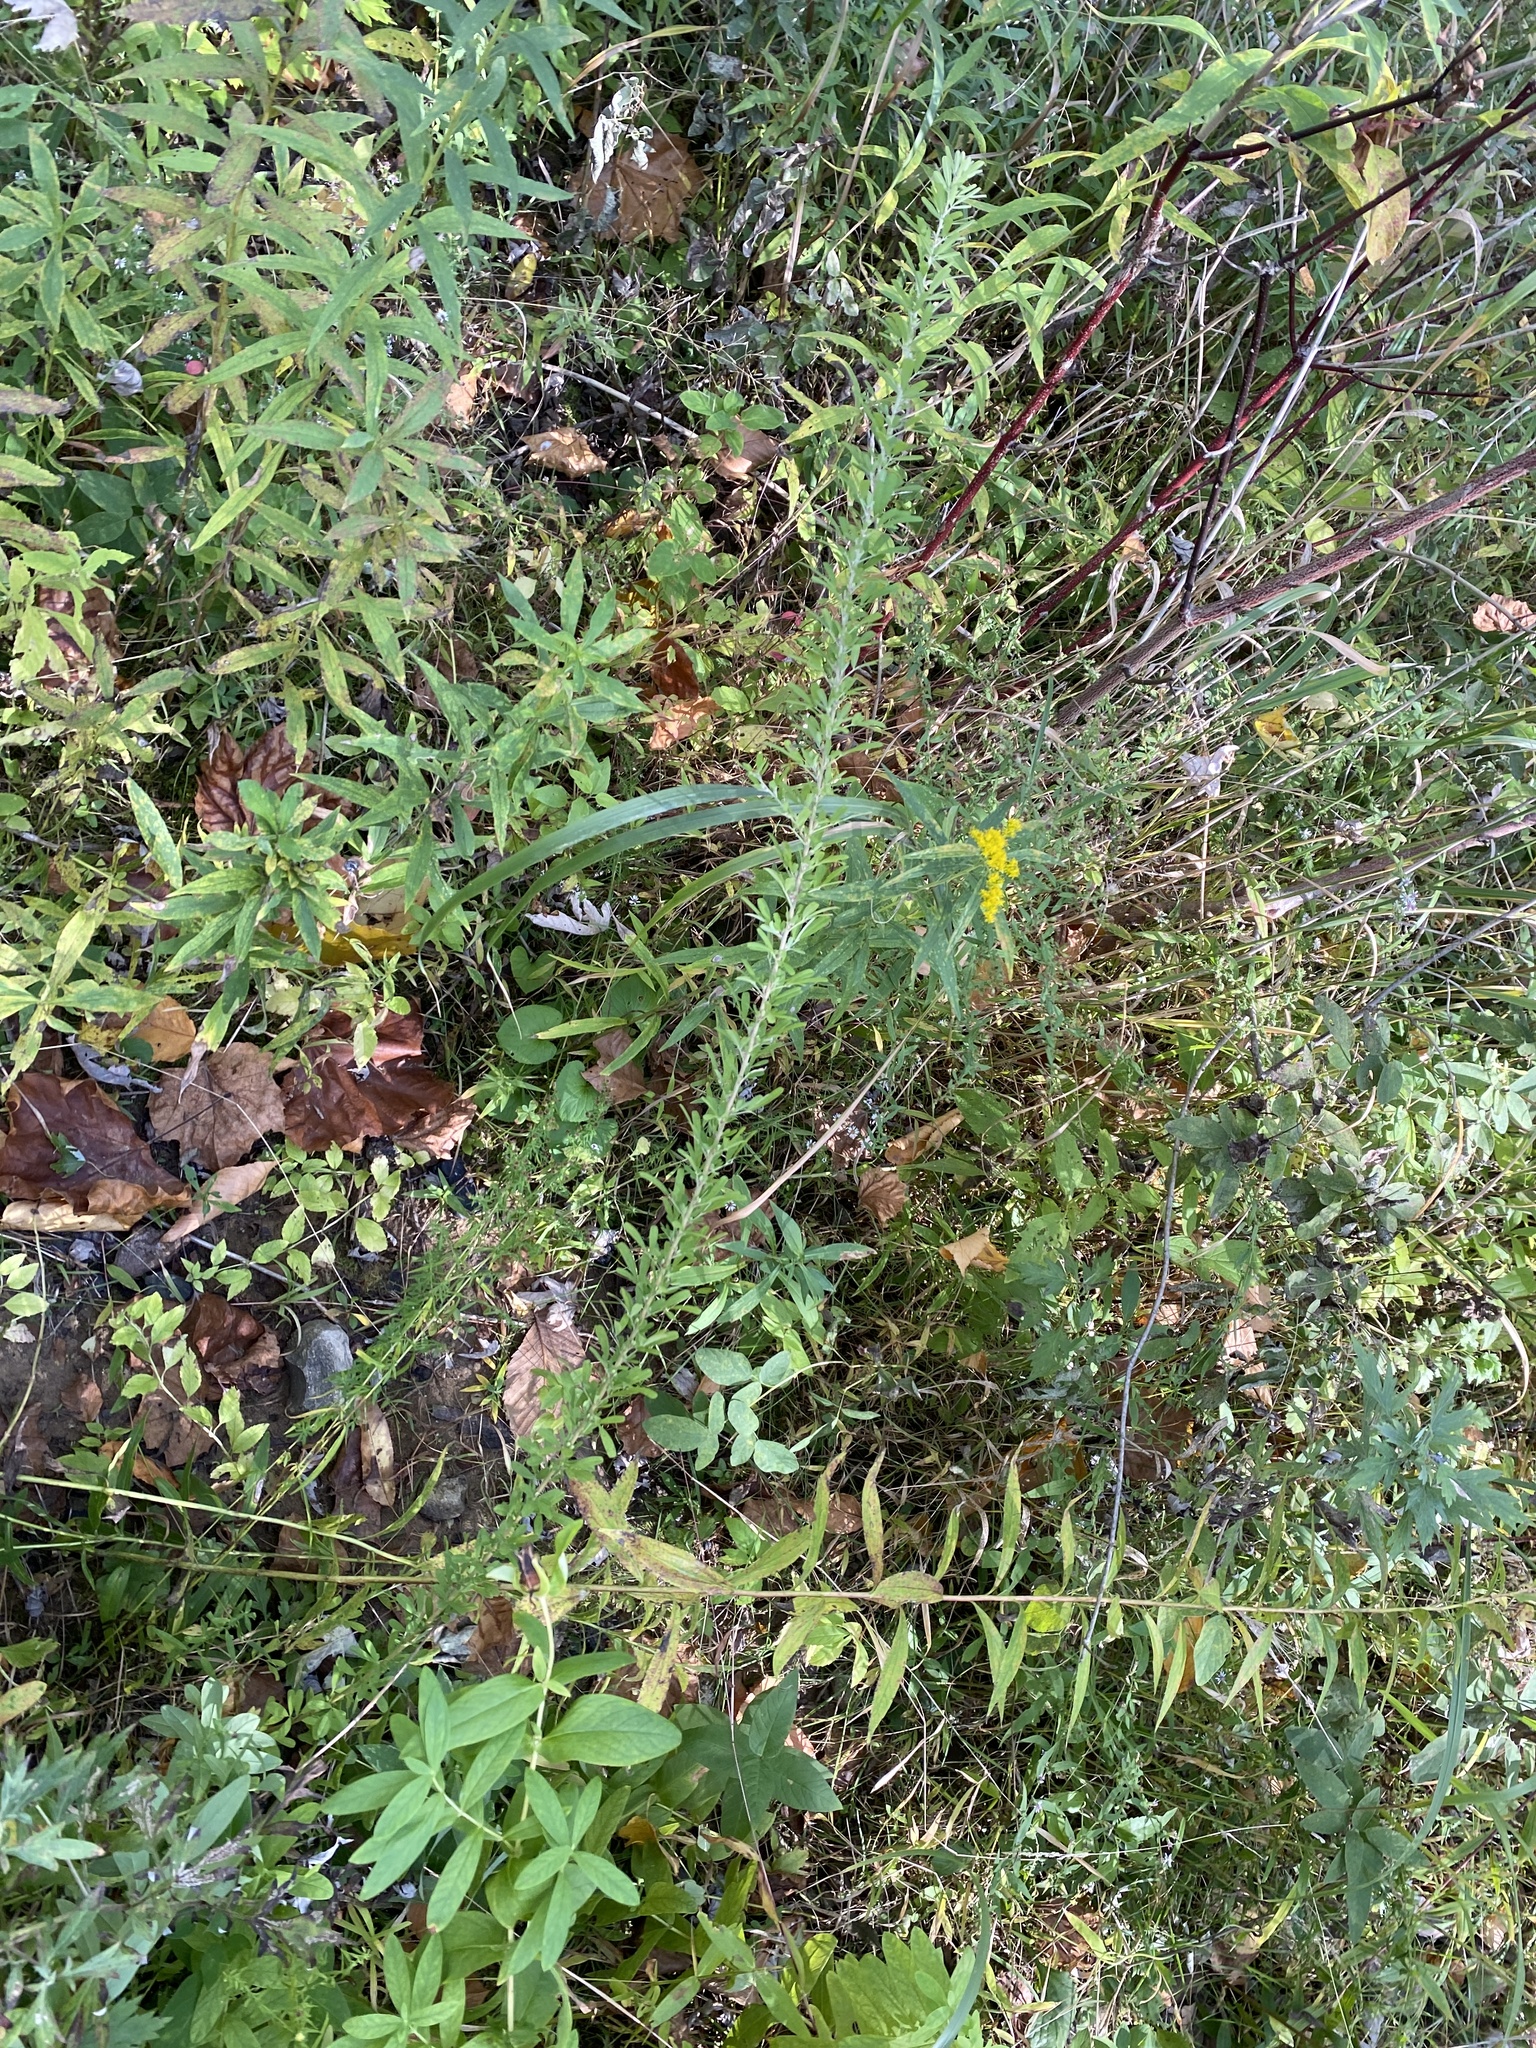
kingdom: Plantae
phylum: Tracheophyta
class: Magnoliopsida
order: Fabales
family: Fabaceae
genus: Lespedeza
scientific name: Lespedeza cuneata
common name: Chinese bush-clover
